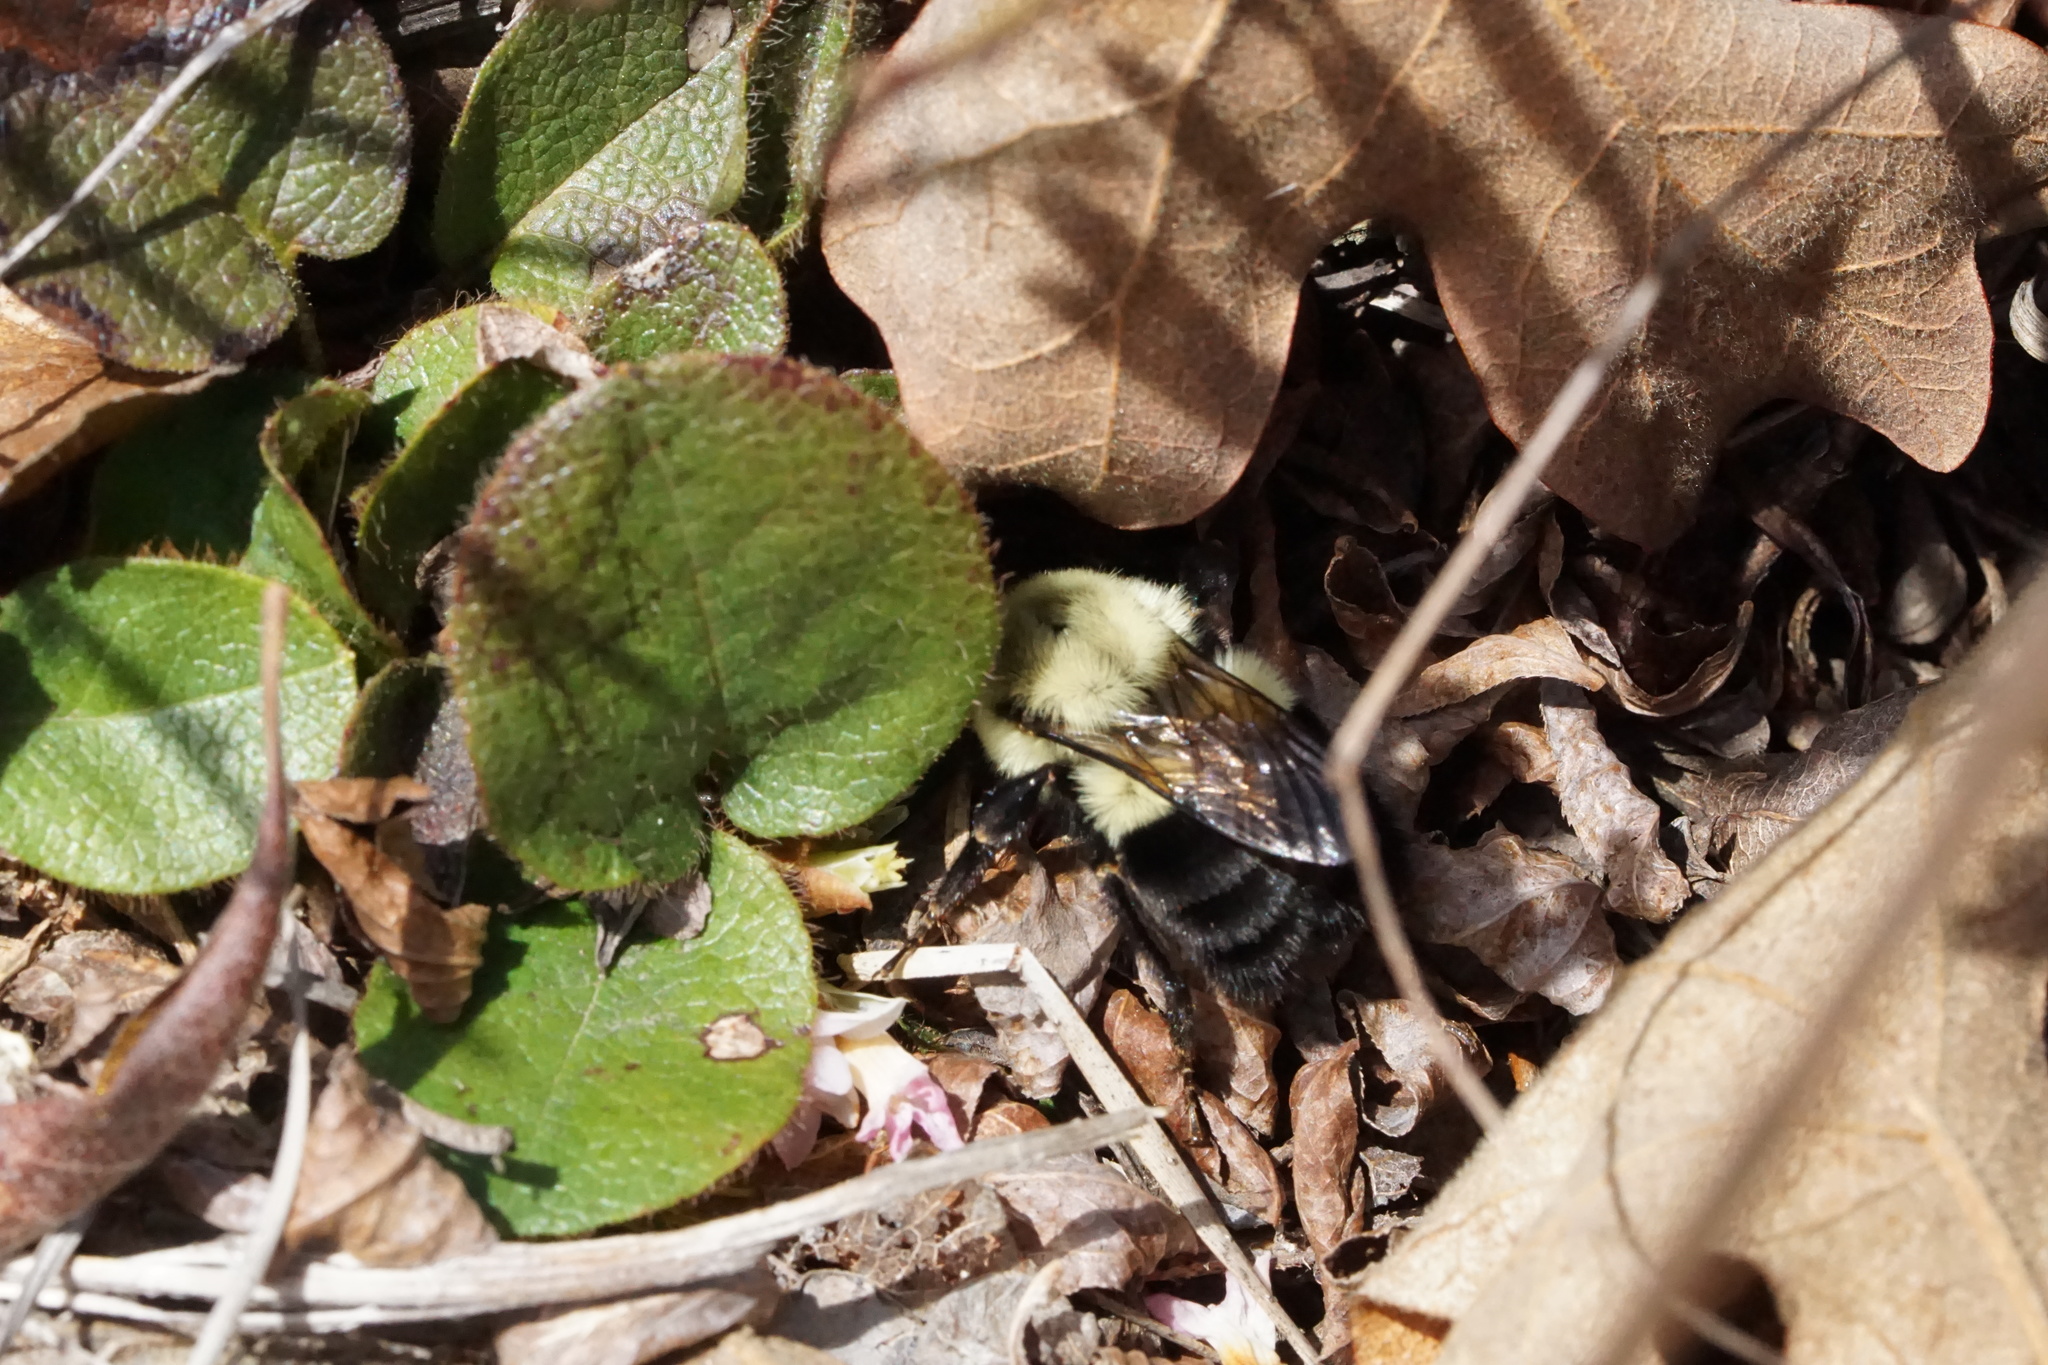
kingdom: Animalia
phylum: Arthropoda
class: Insecta
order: Hymenoptera
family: Apidae
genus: Bombus
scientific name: Bombus impatiens
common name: Common eastern bumble bee
